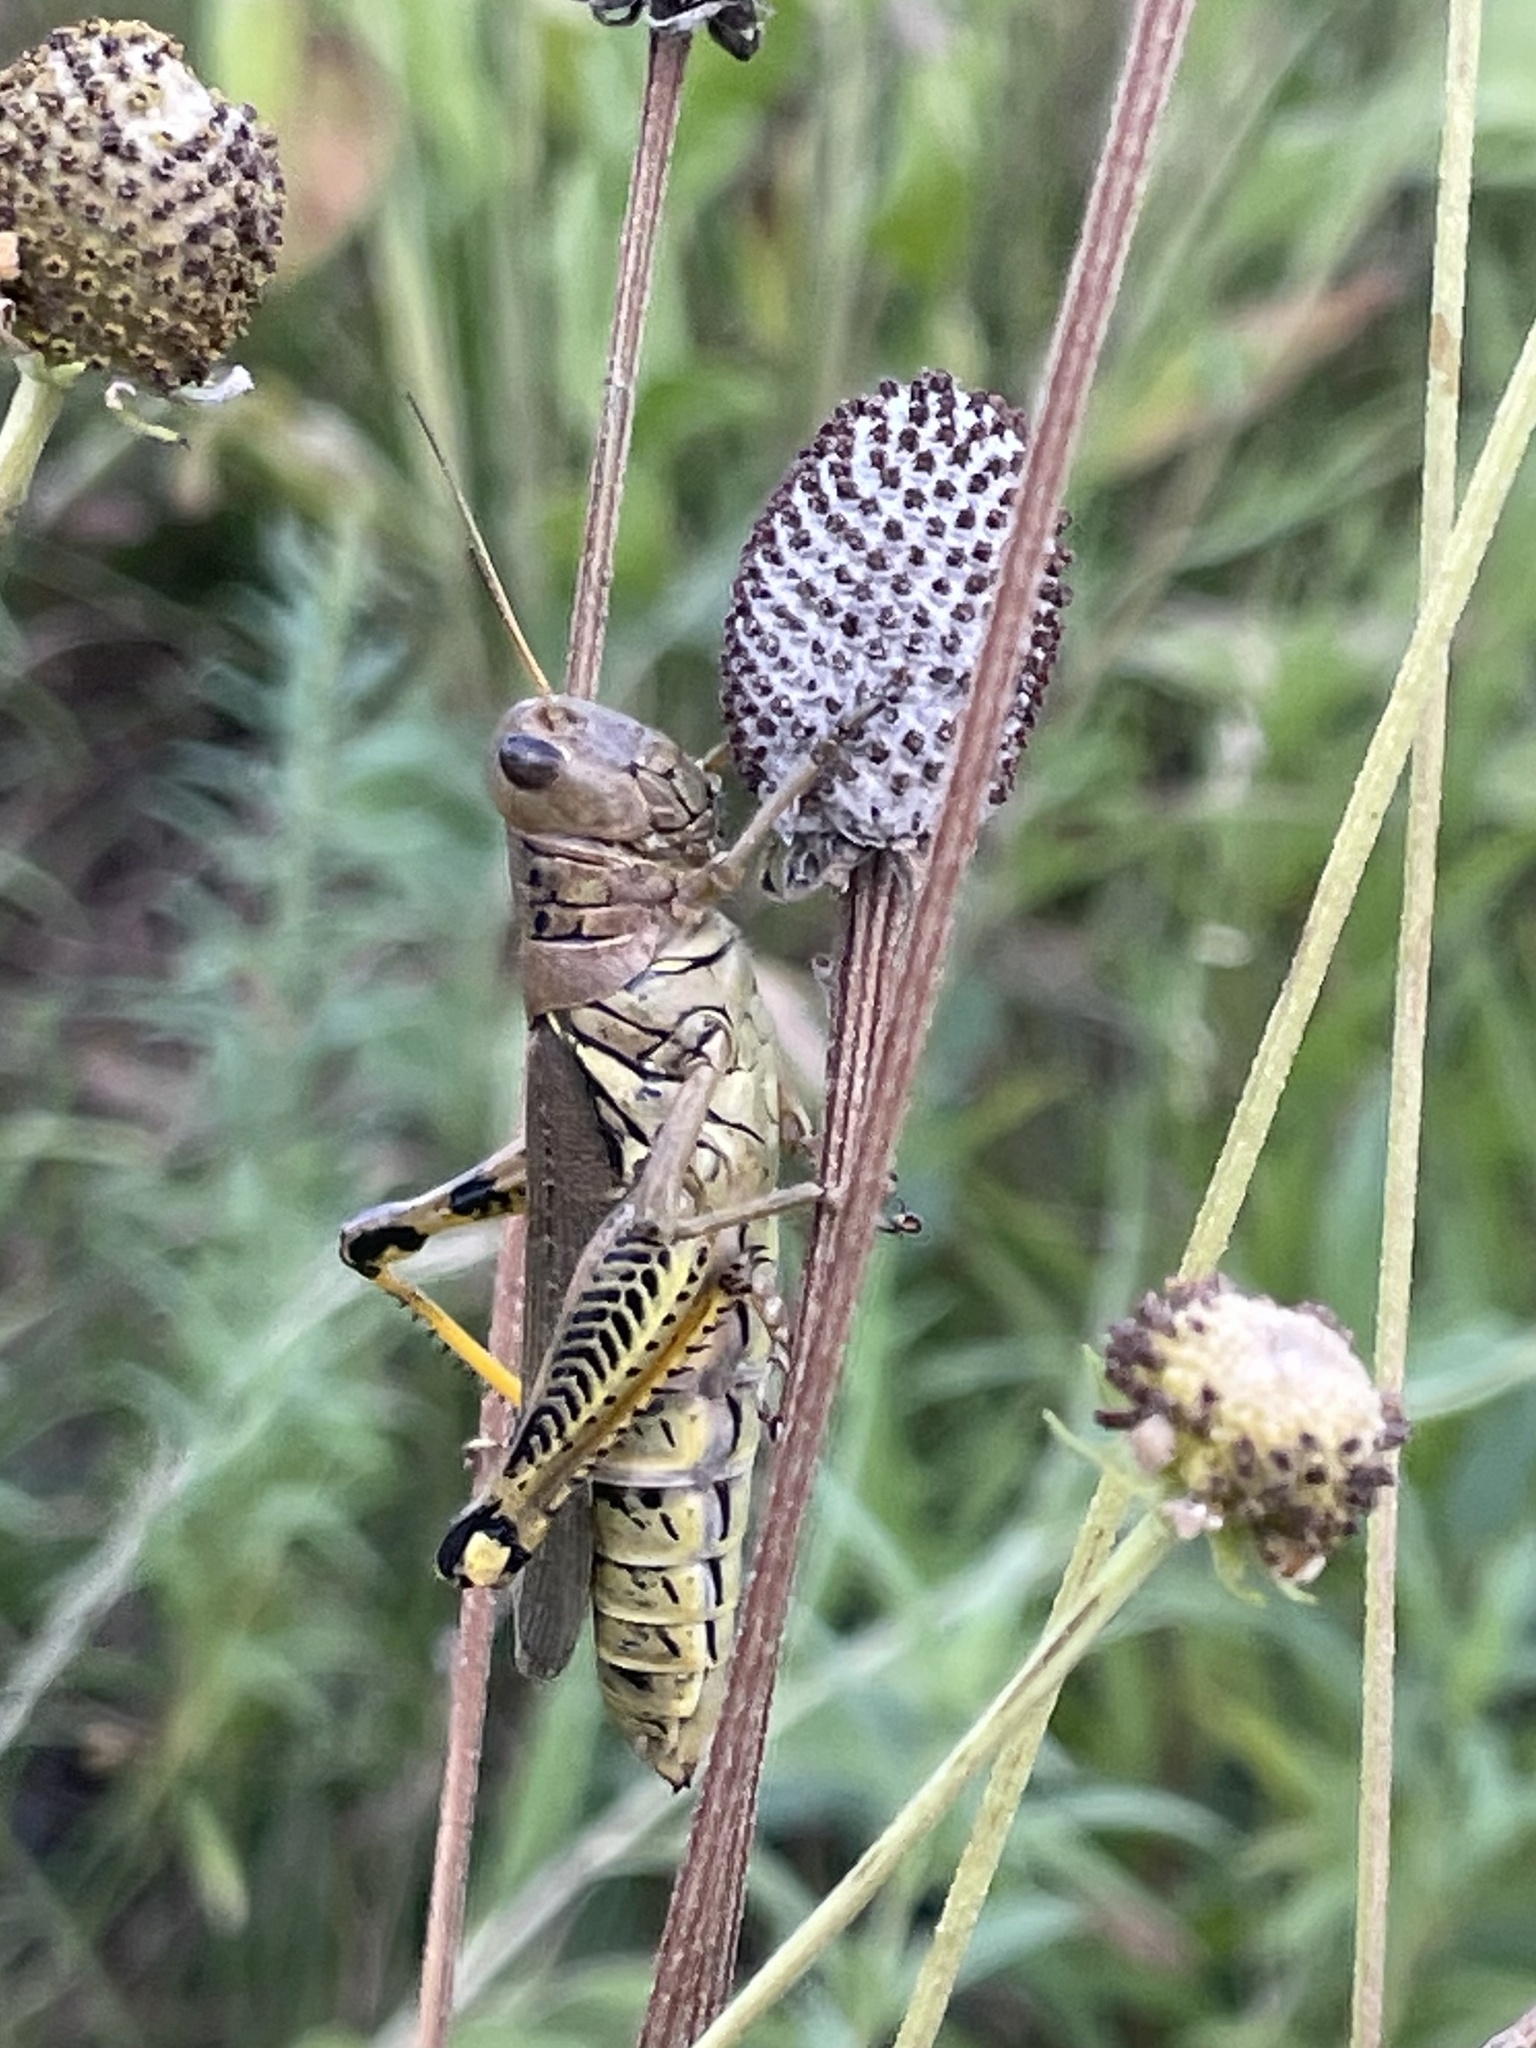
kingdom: Animalia
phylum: Arthropoda
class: Insecta
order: Orthoptera
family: Acrididae
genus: Melanoplus
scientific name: Melanoplus differentialis
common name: Differential grasshopper
